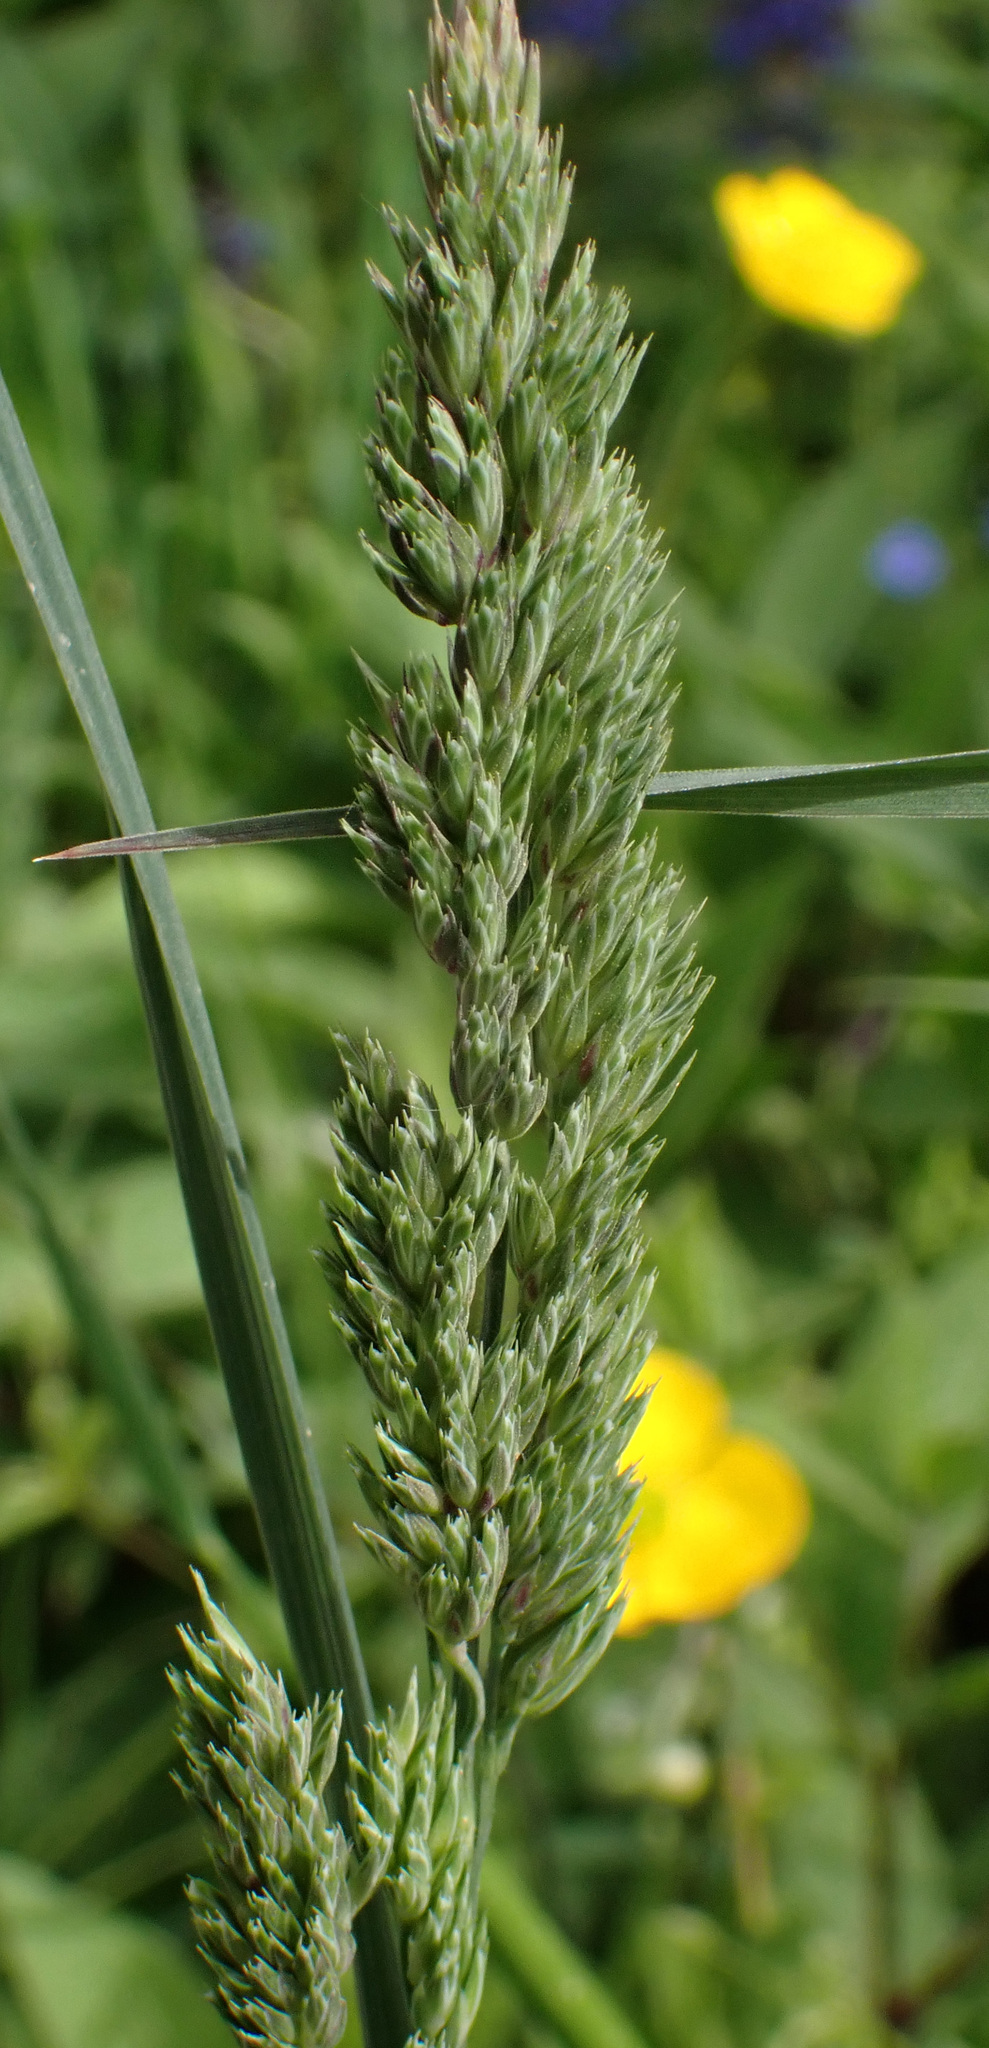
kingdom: Plantae
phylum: Tracheophyta
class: Liliopsida
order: Poales
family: Poaceae
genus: Dactylis
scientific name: Dactylis glomerata
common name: Orchardgrass
